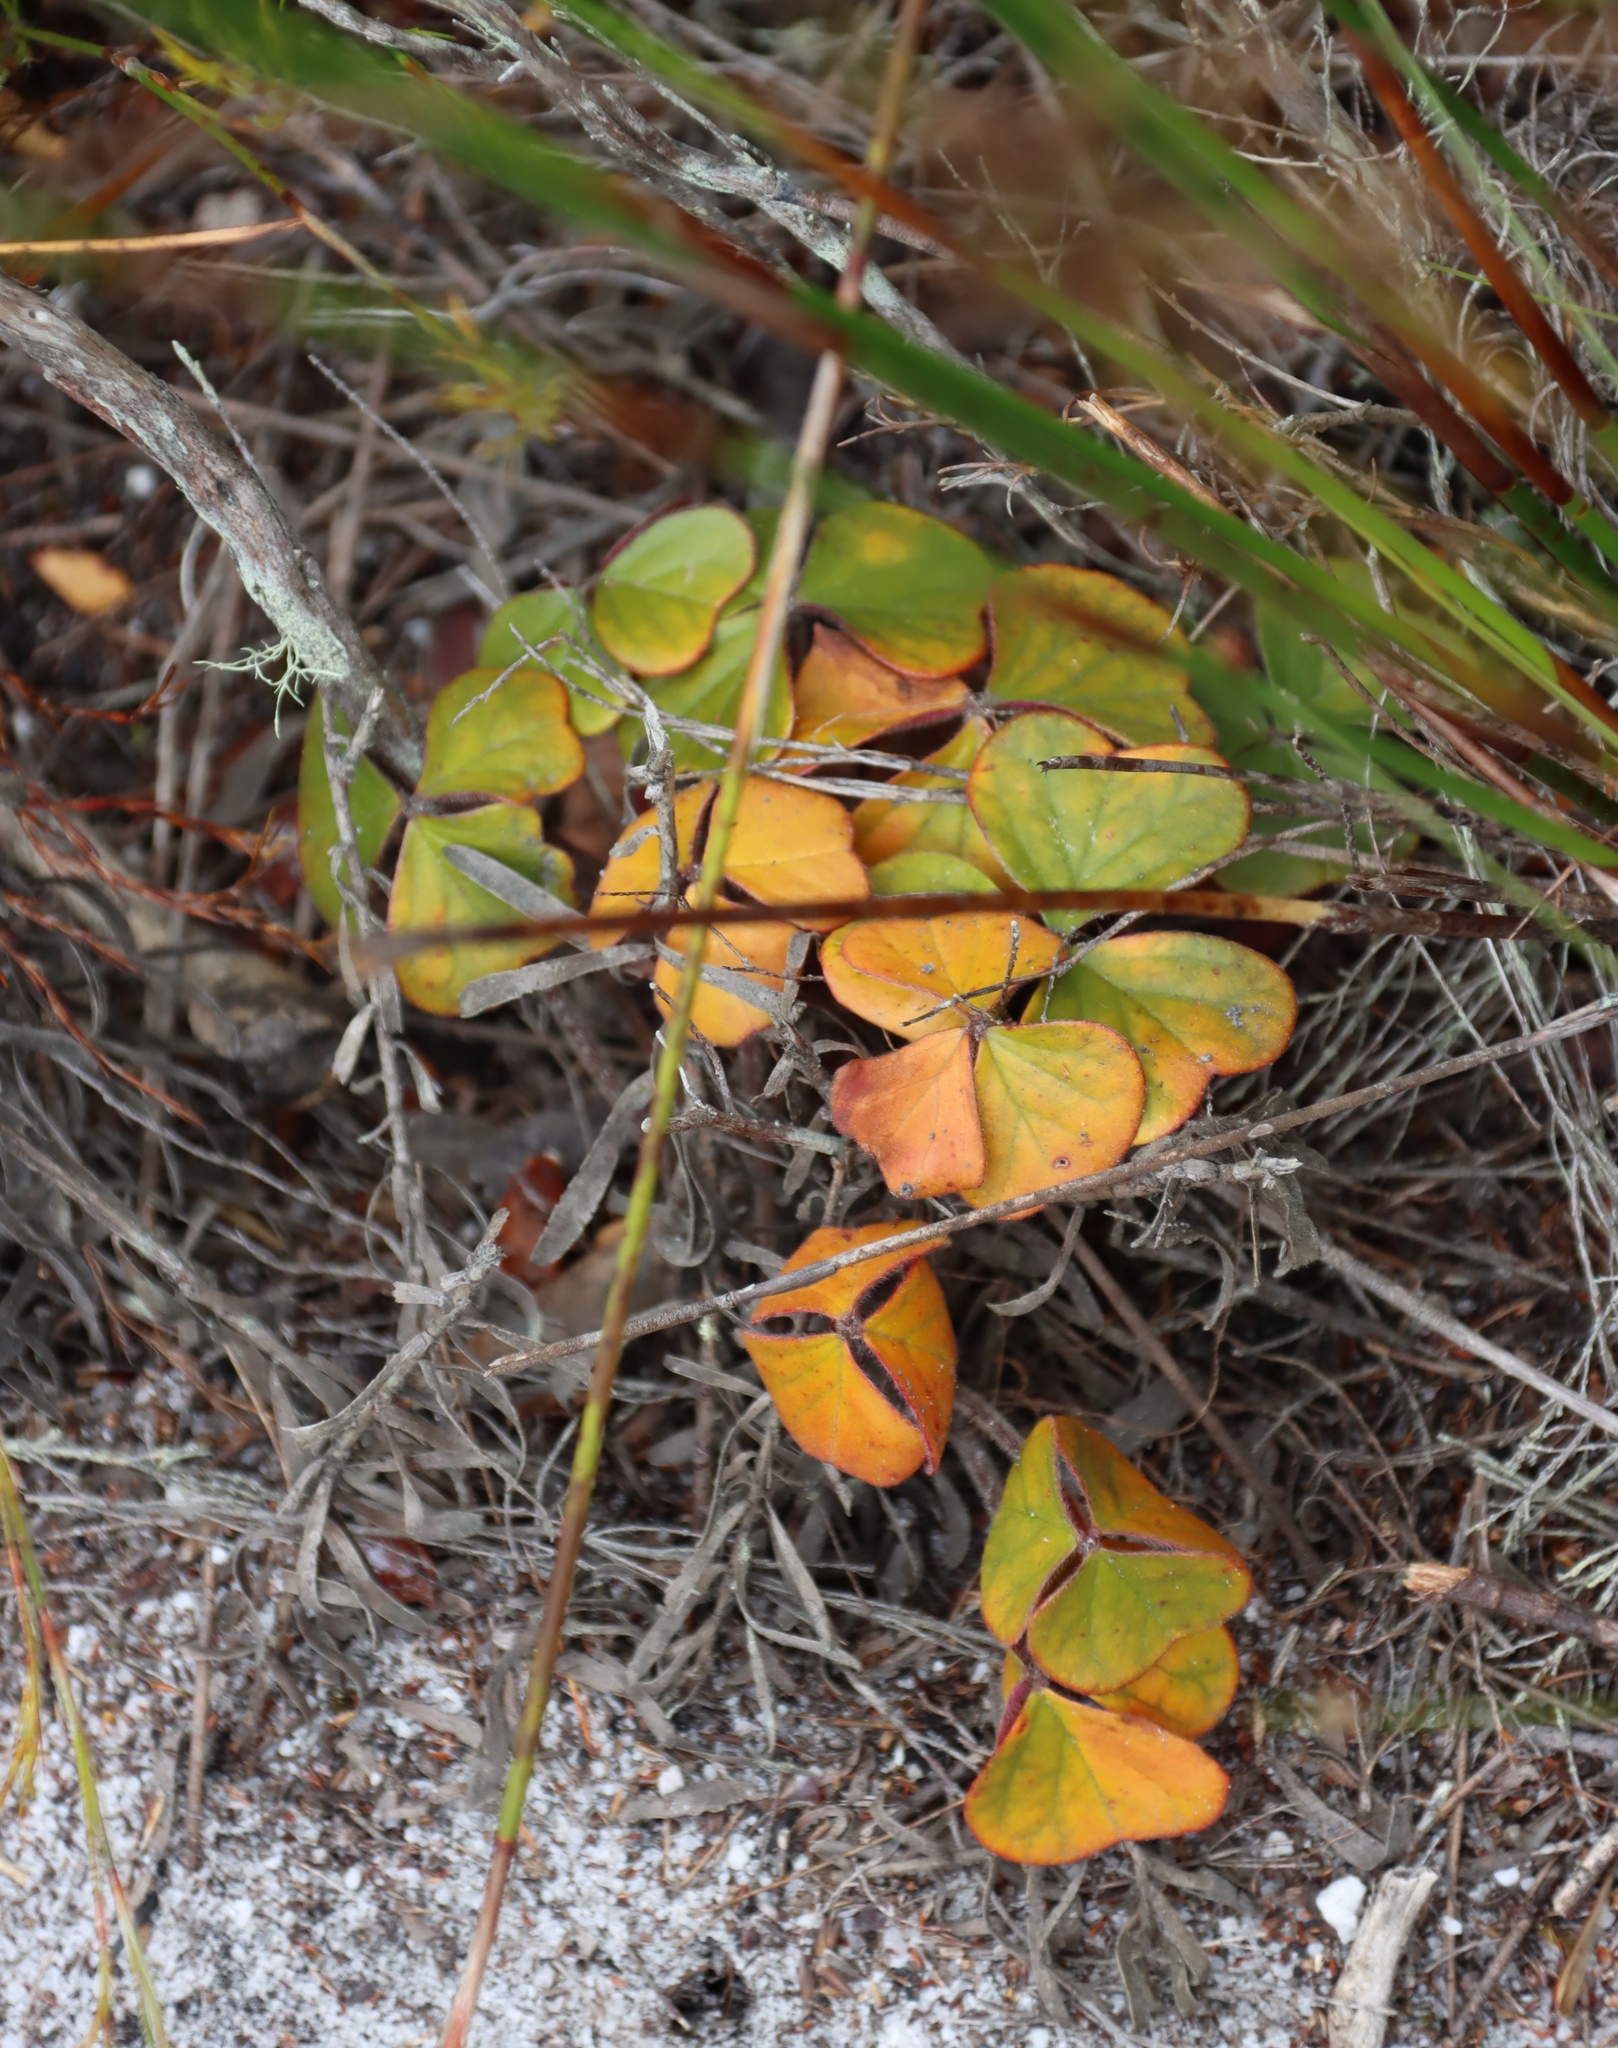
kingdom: Plantae
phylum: Tracheophyta
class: Magnoliopsida
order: Oxalidales
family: Oxalidaceae
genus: Oxalis
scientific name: Oxalis truncatula
